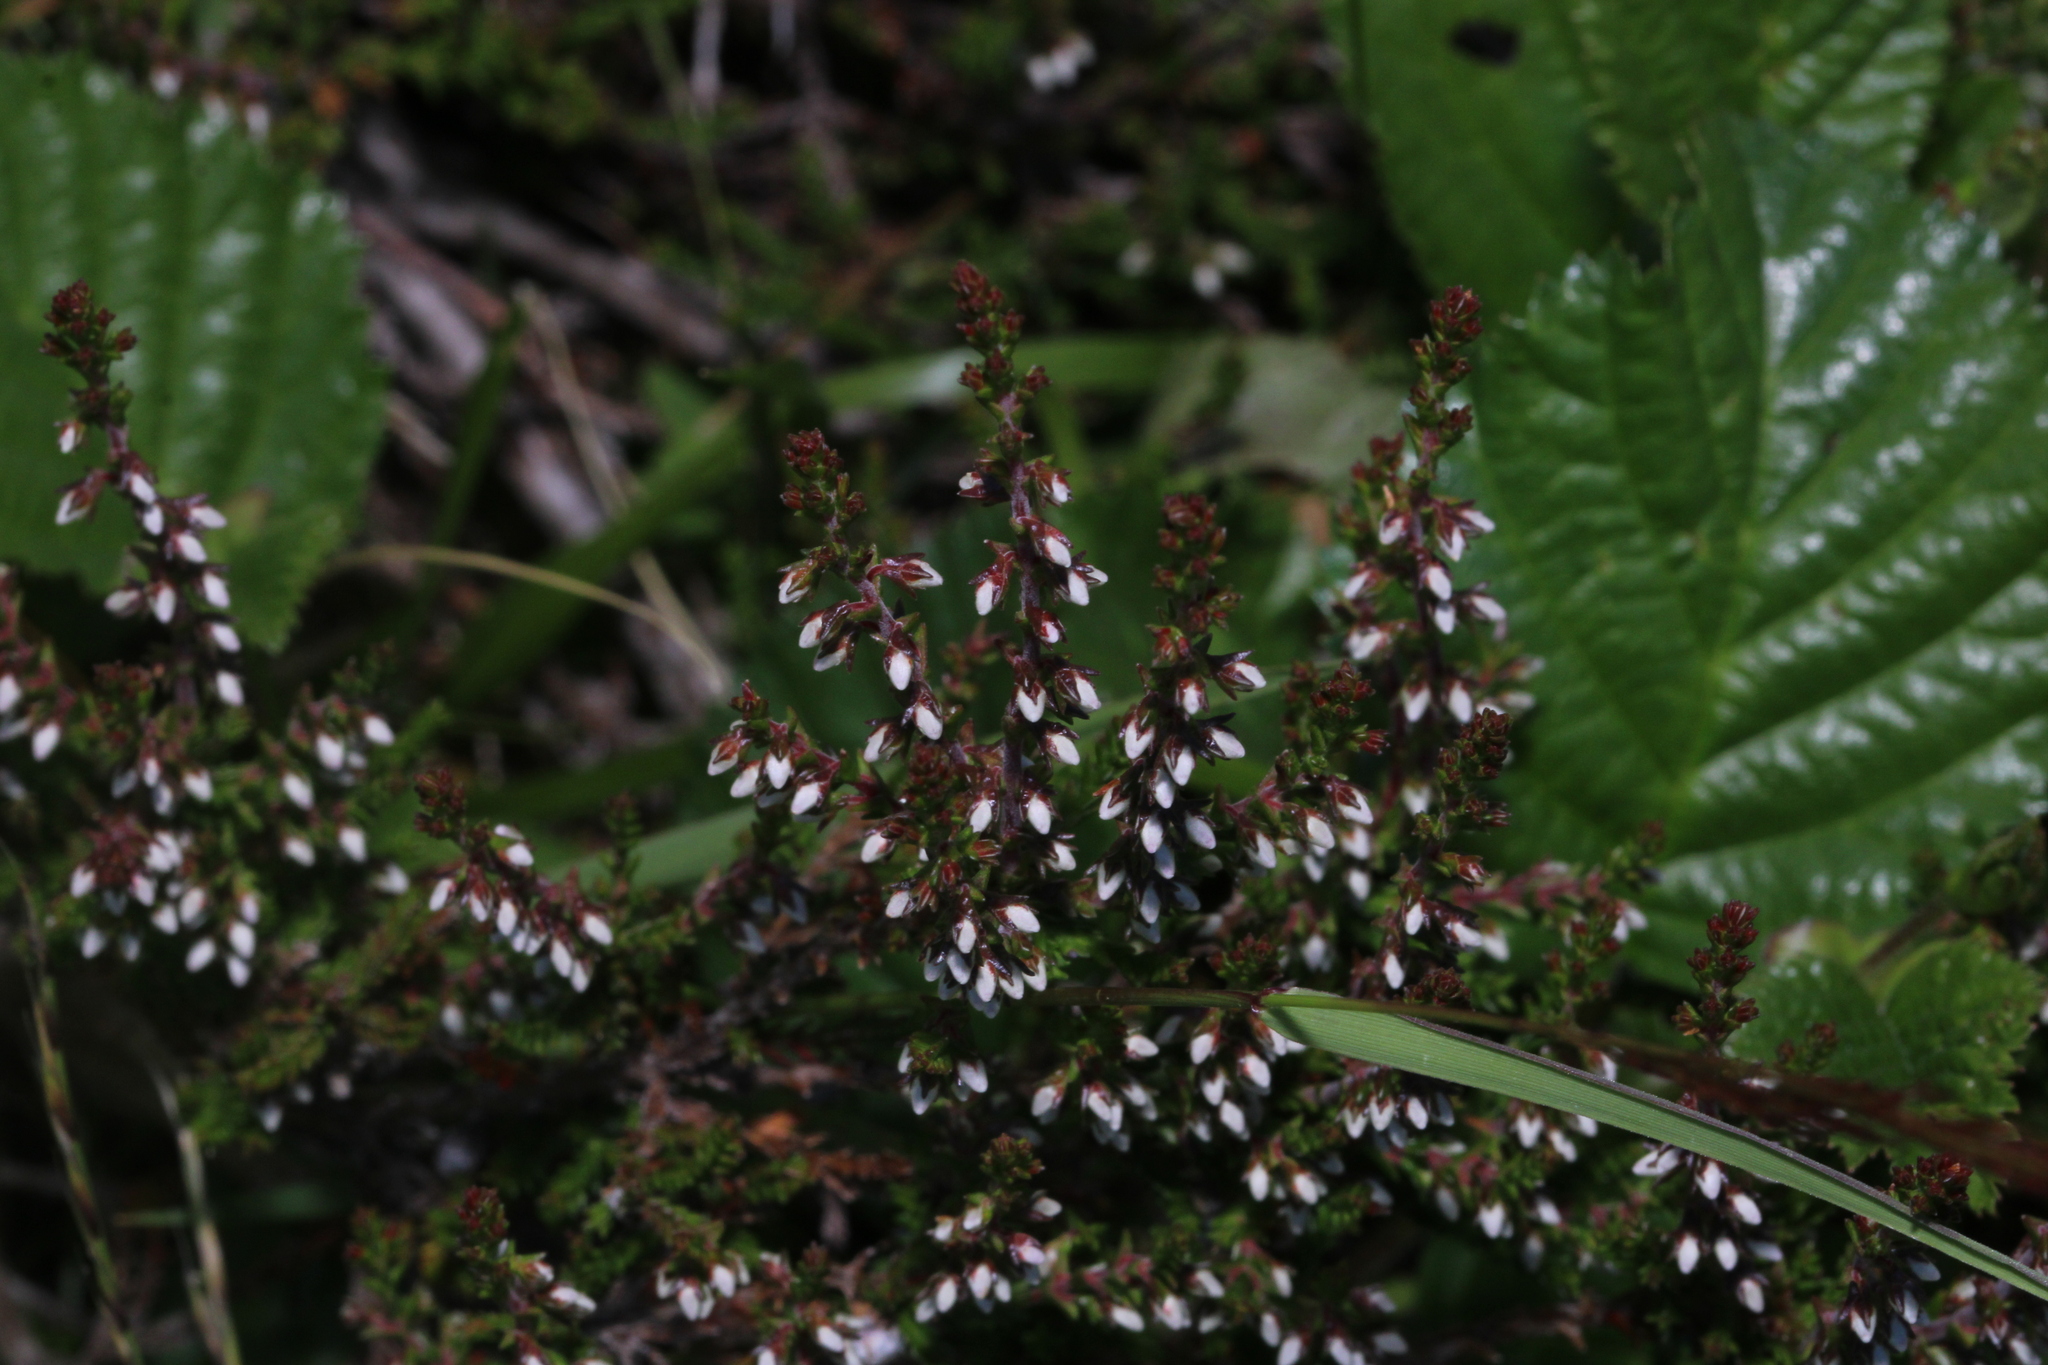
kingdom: Plantae
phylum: Tracheophyta
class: Magnoliopsida
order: Ericales
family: Ericaceae
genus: Calluna
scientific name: Calluna vulgaris
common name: Heather
